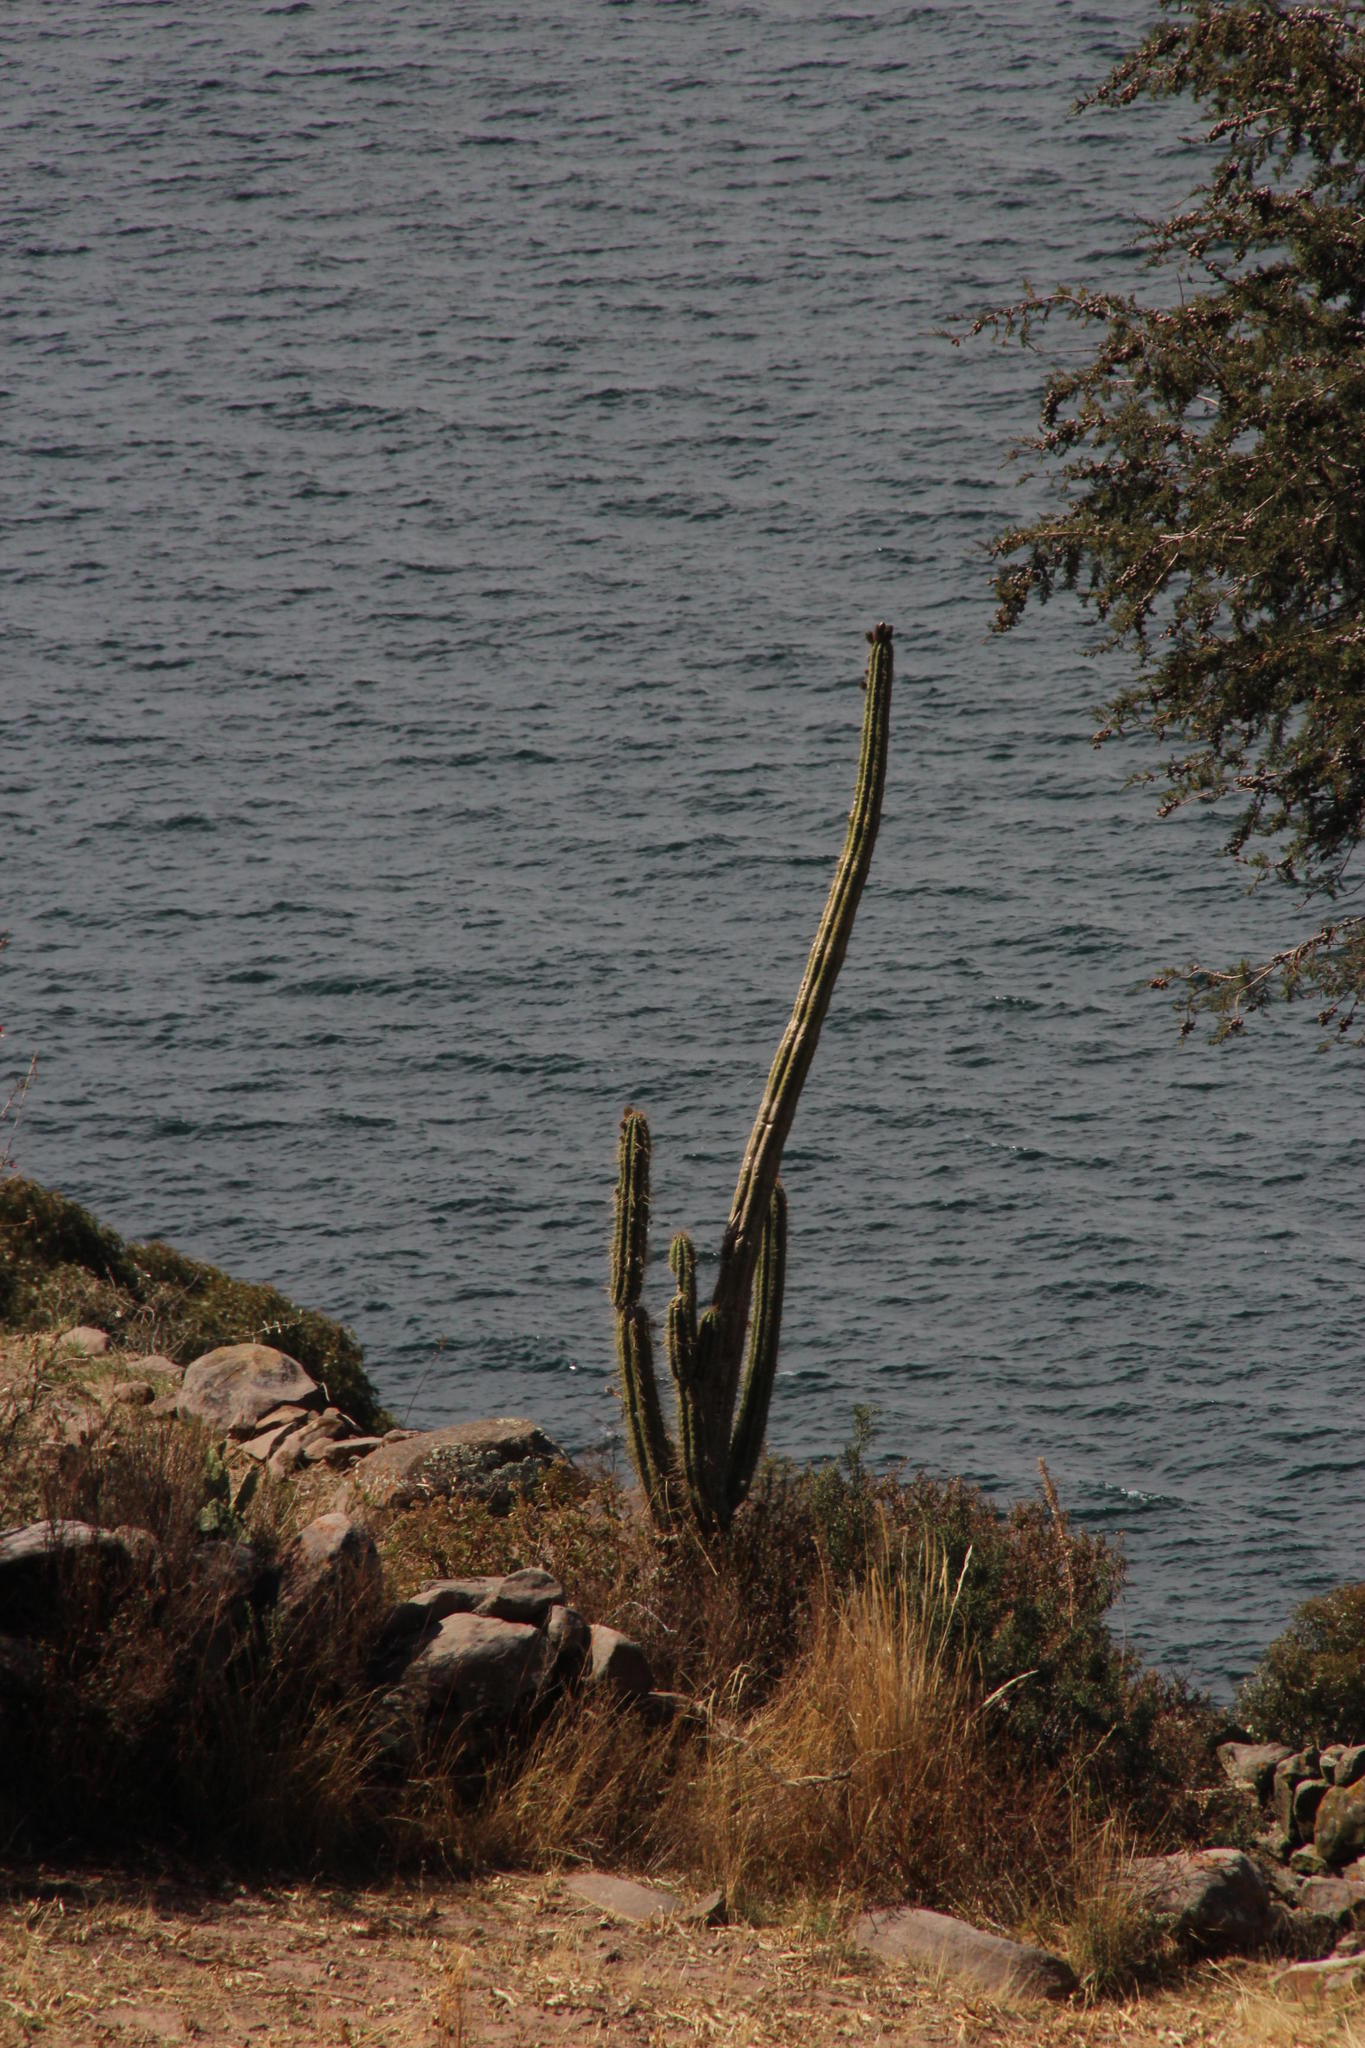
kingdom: Plantae
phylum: Tracheophyta
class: Magnoliopsida
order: Caryophyllales
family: Cactaceae
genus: Trichocereus
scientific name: Trichocereus macrogonus
